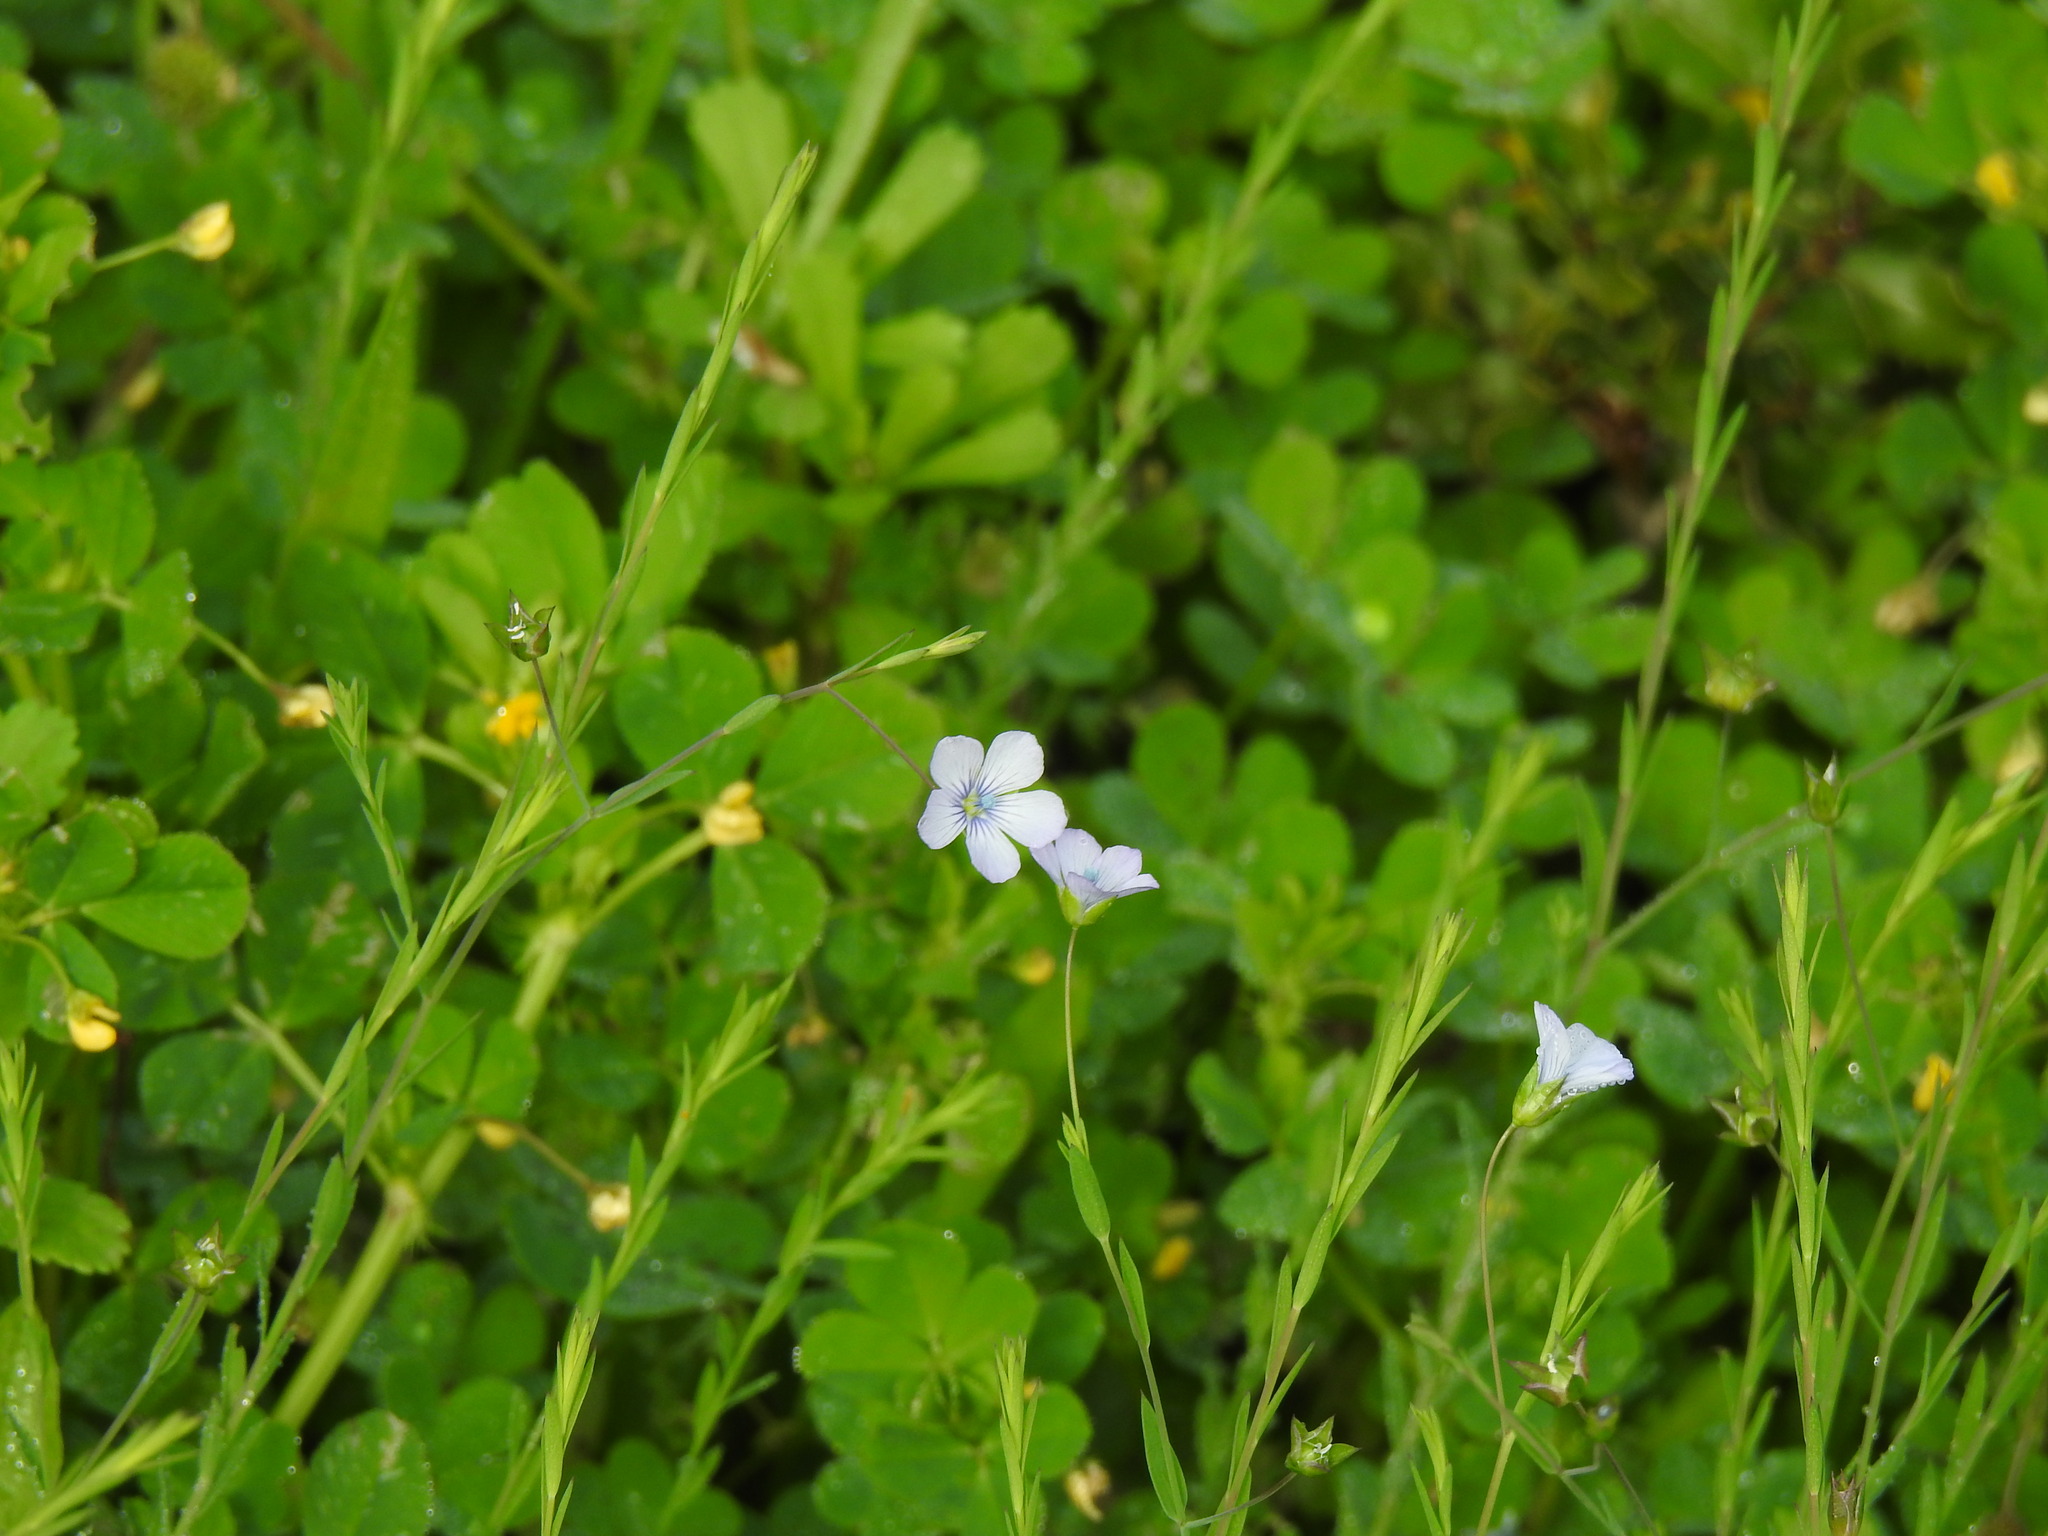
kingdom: Plantae
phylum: Tracheophyta
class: Magnoliopsida
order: Malpighiales
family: Linaceae
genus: Linum
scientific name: Linum bienne
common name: Pale flax
